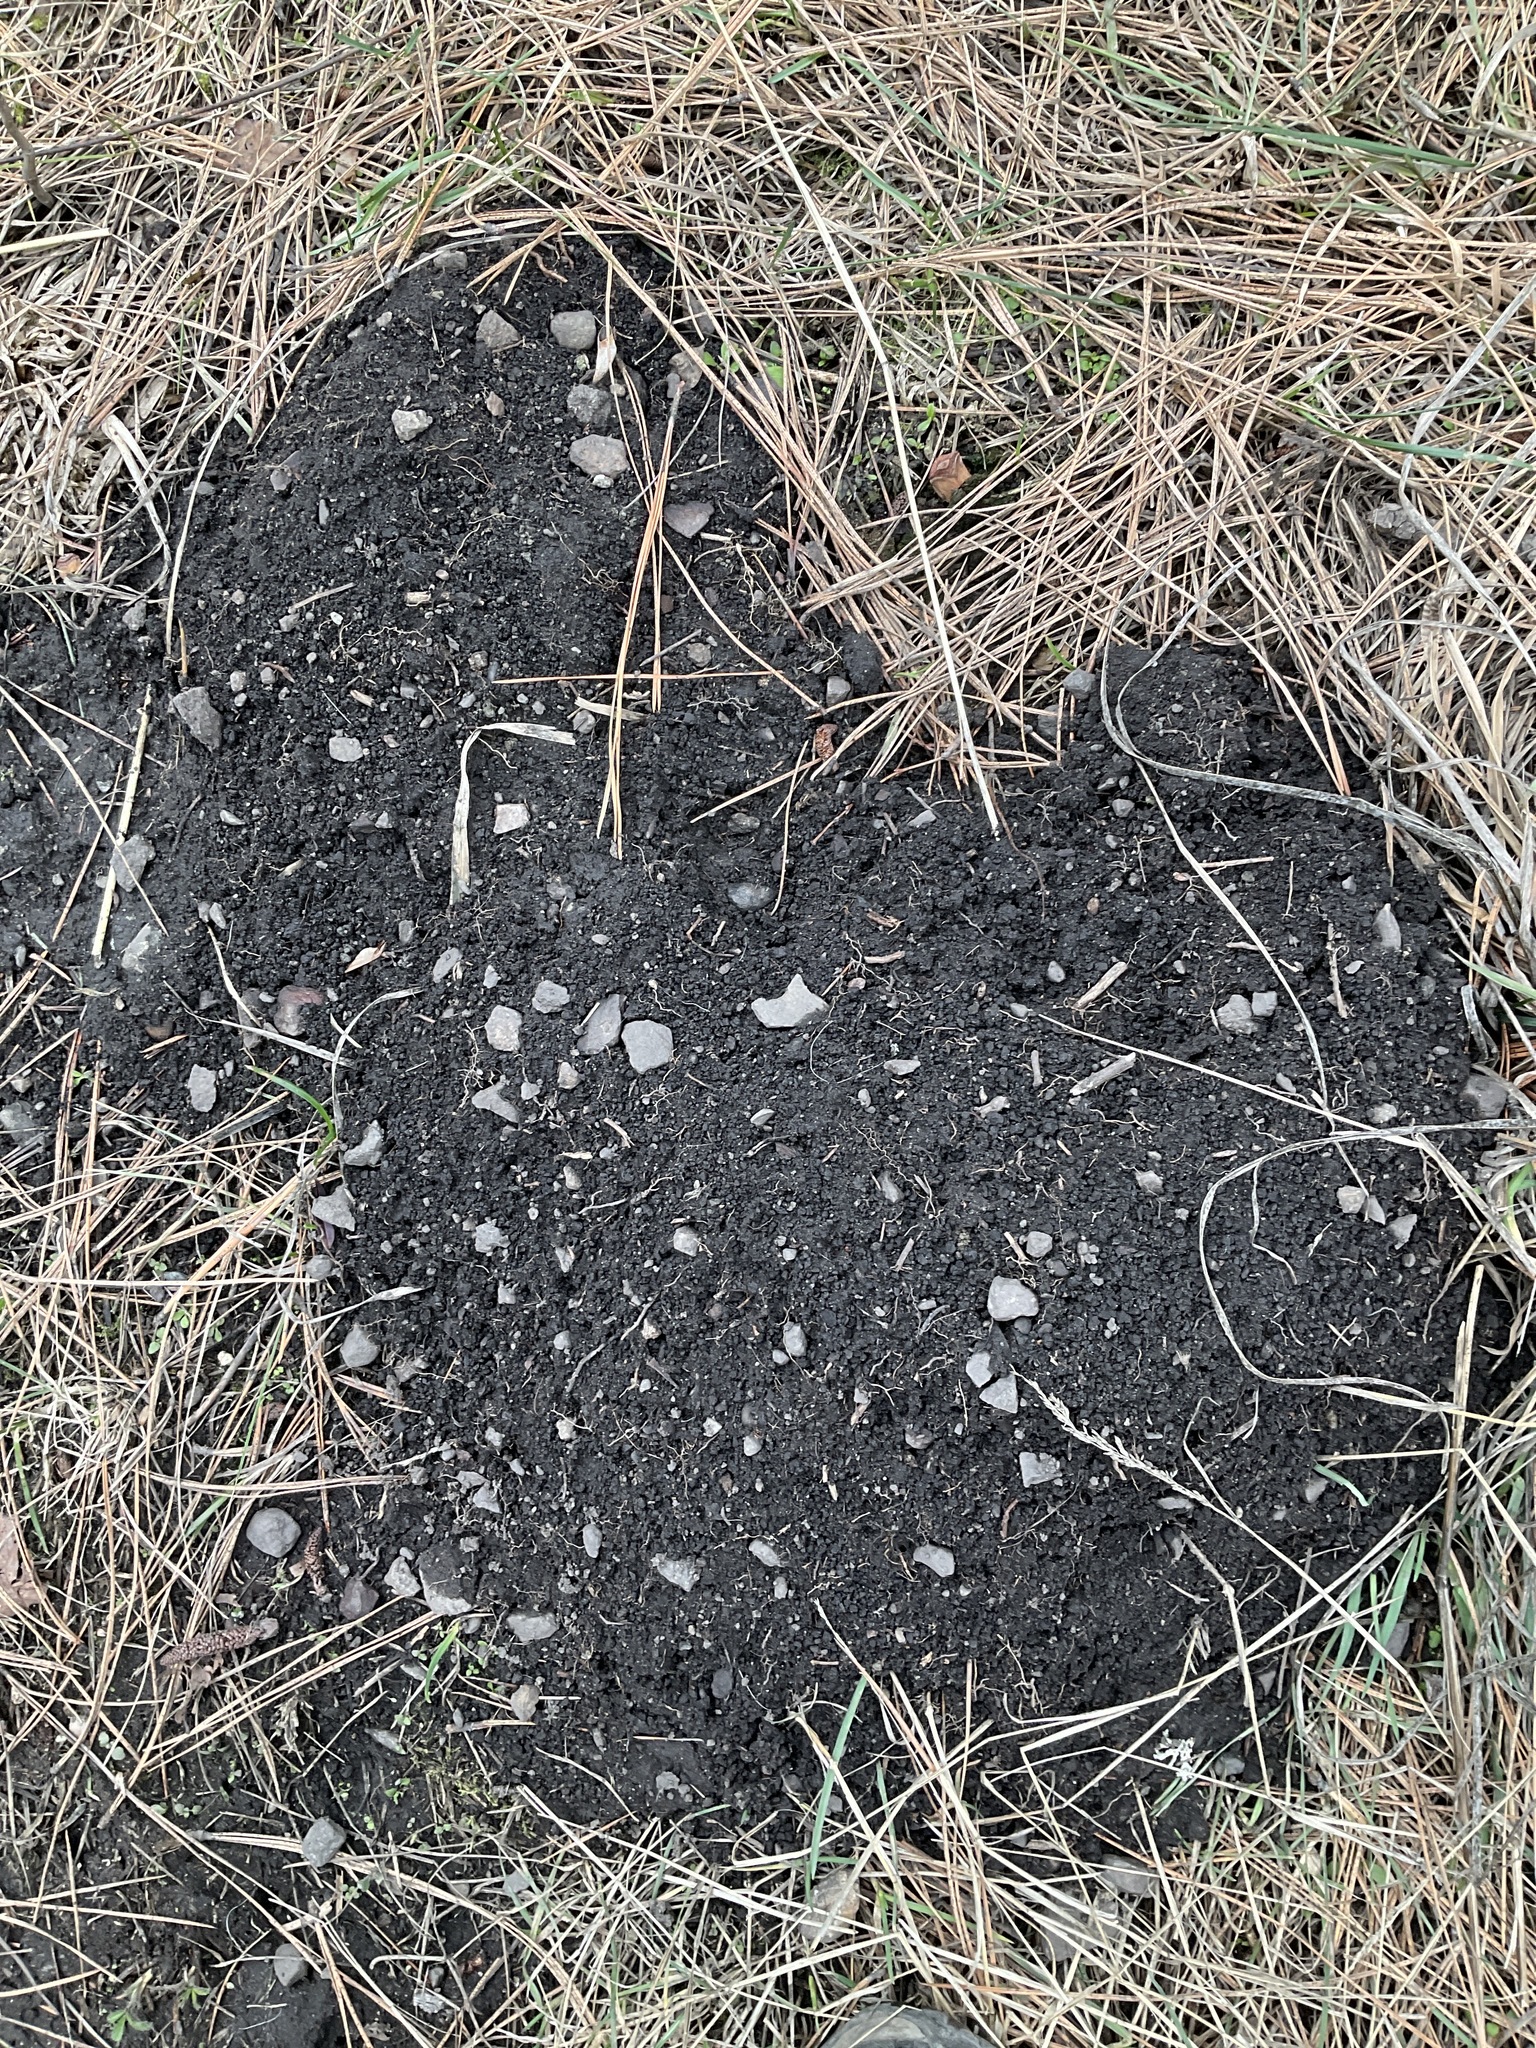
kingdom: Animalia
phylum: Chordata
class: Mammalia
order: Rodentia
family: Geomyidae
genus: Thomomys
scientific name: Thomomys talpoides
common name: Northern pocket gopher
